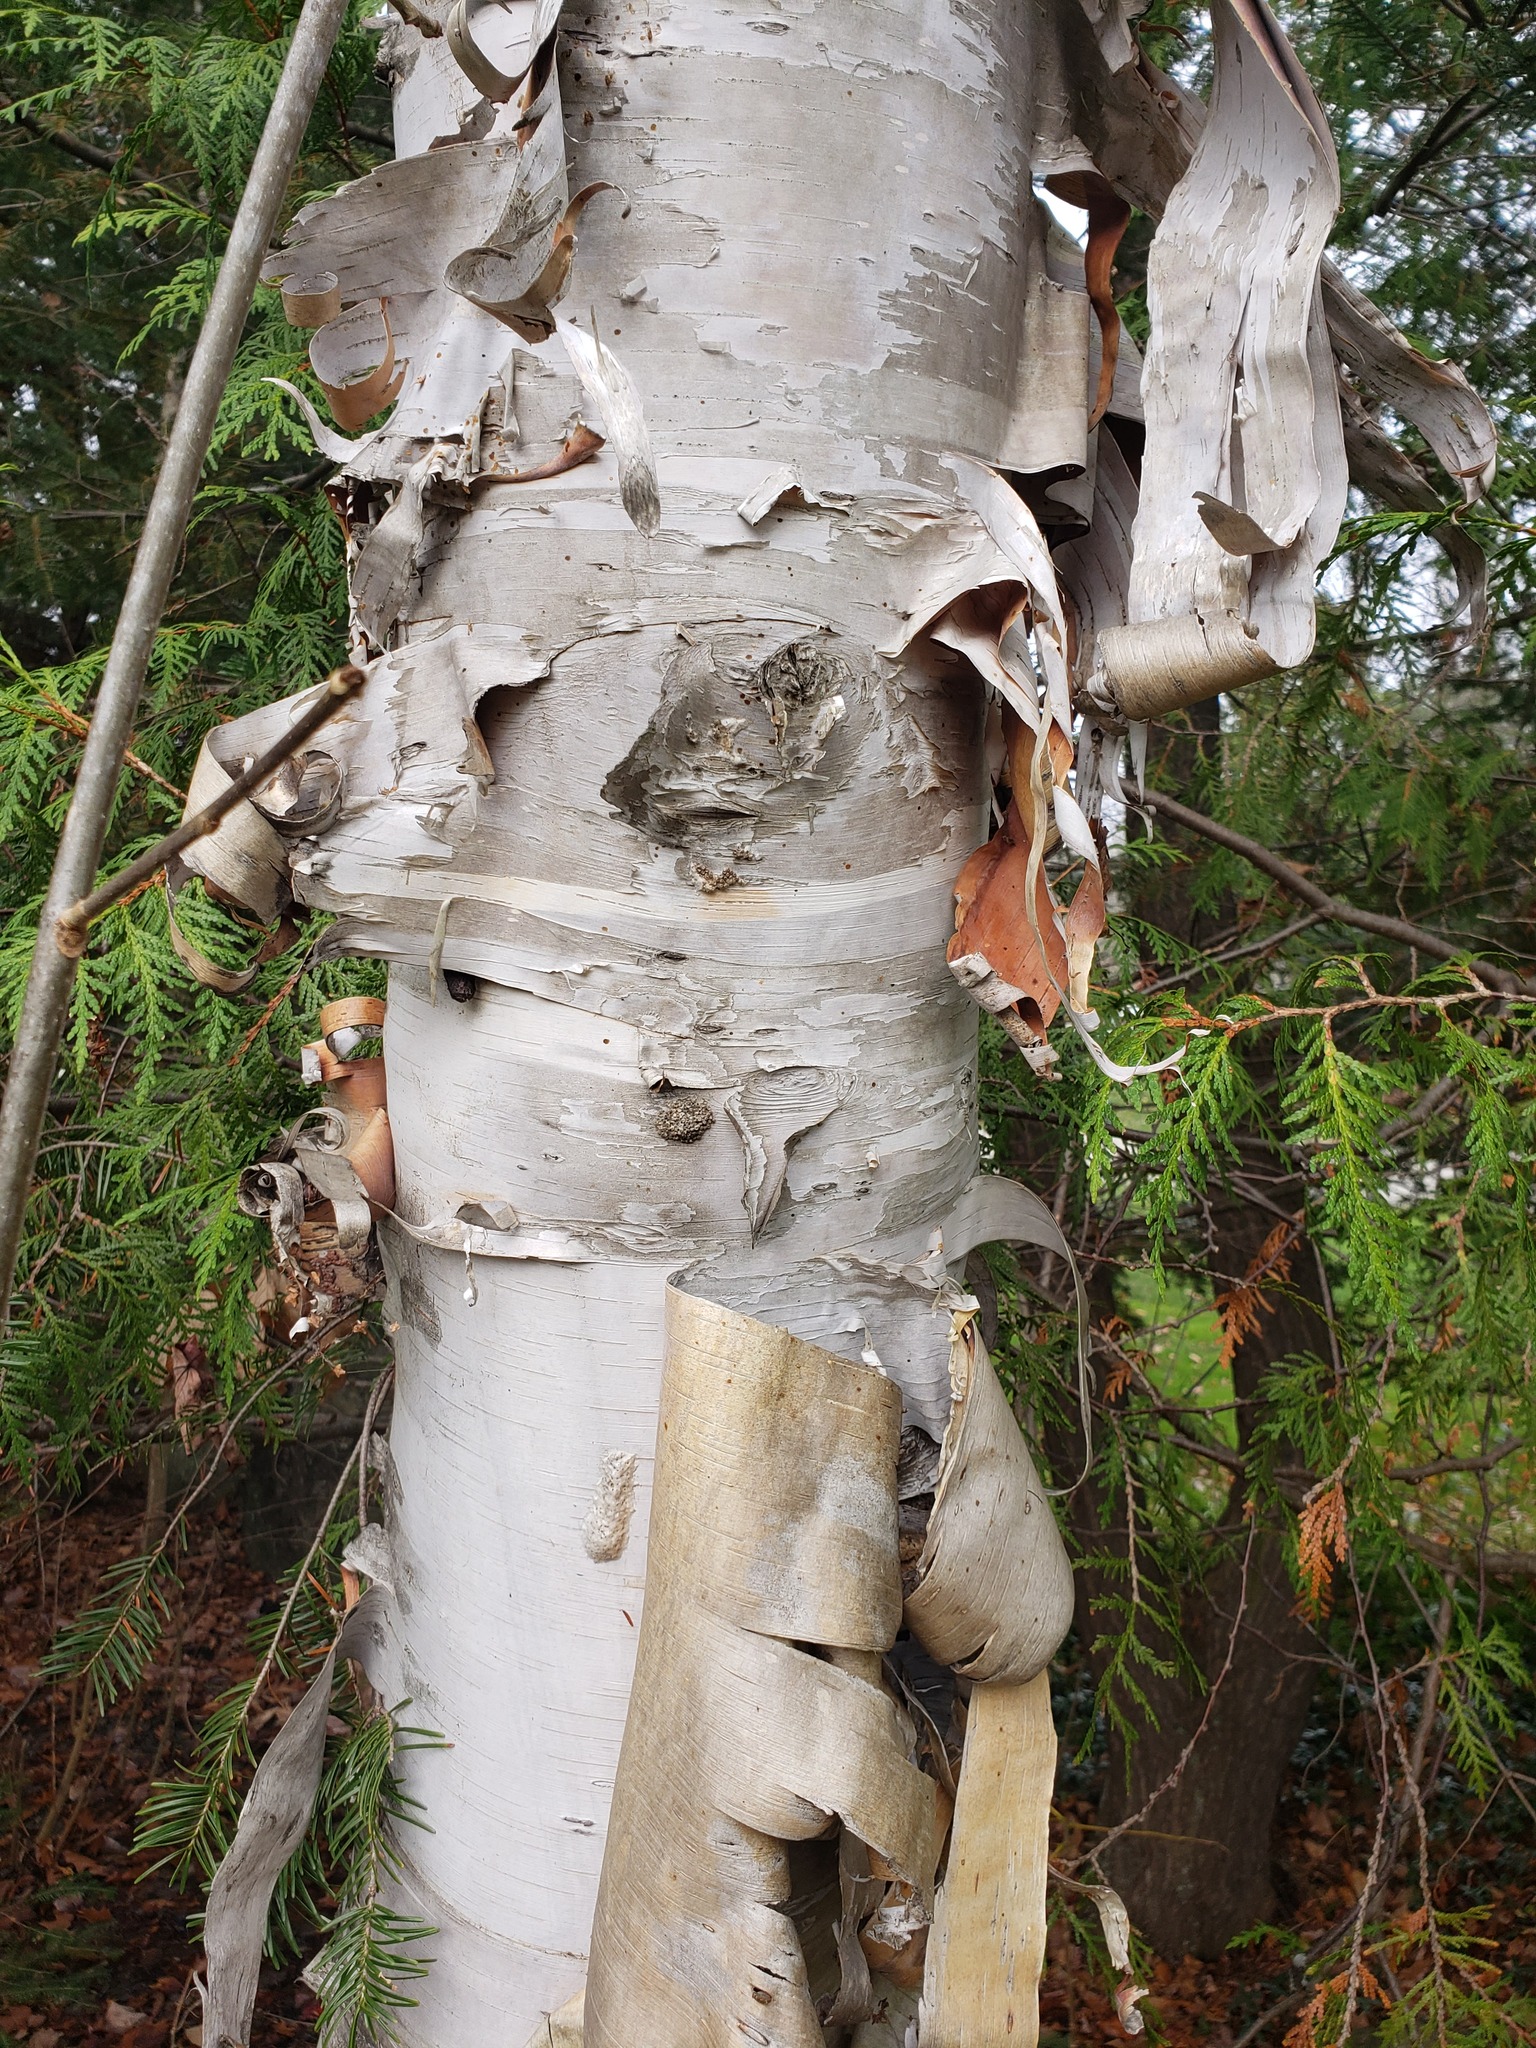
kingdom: Plantae
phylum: Tracheophyta
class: Magnoliopsida
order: Fagales
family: Betulaceae
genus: Betula
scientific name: Betula papyrifera
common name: Paper birch
